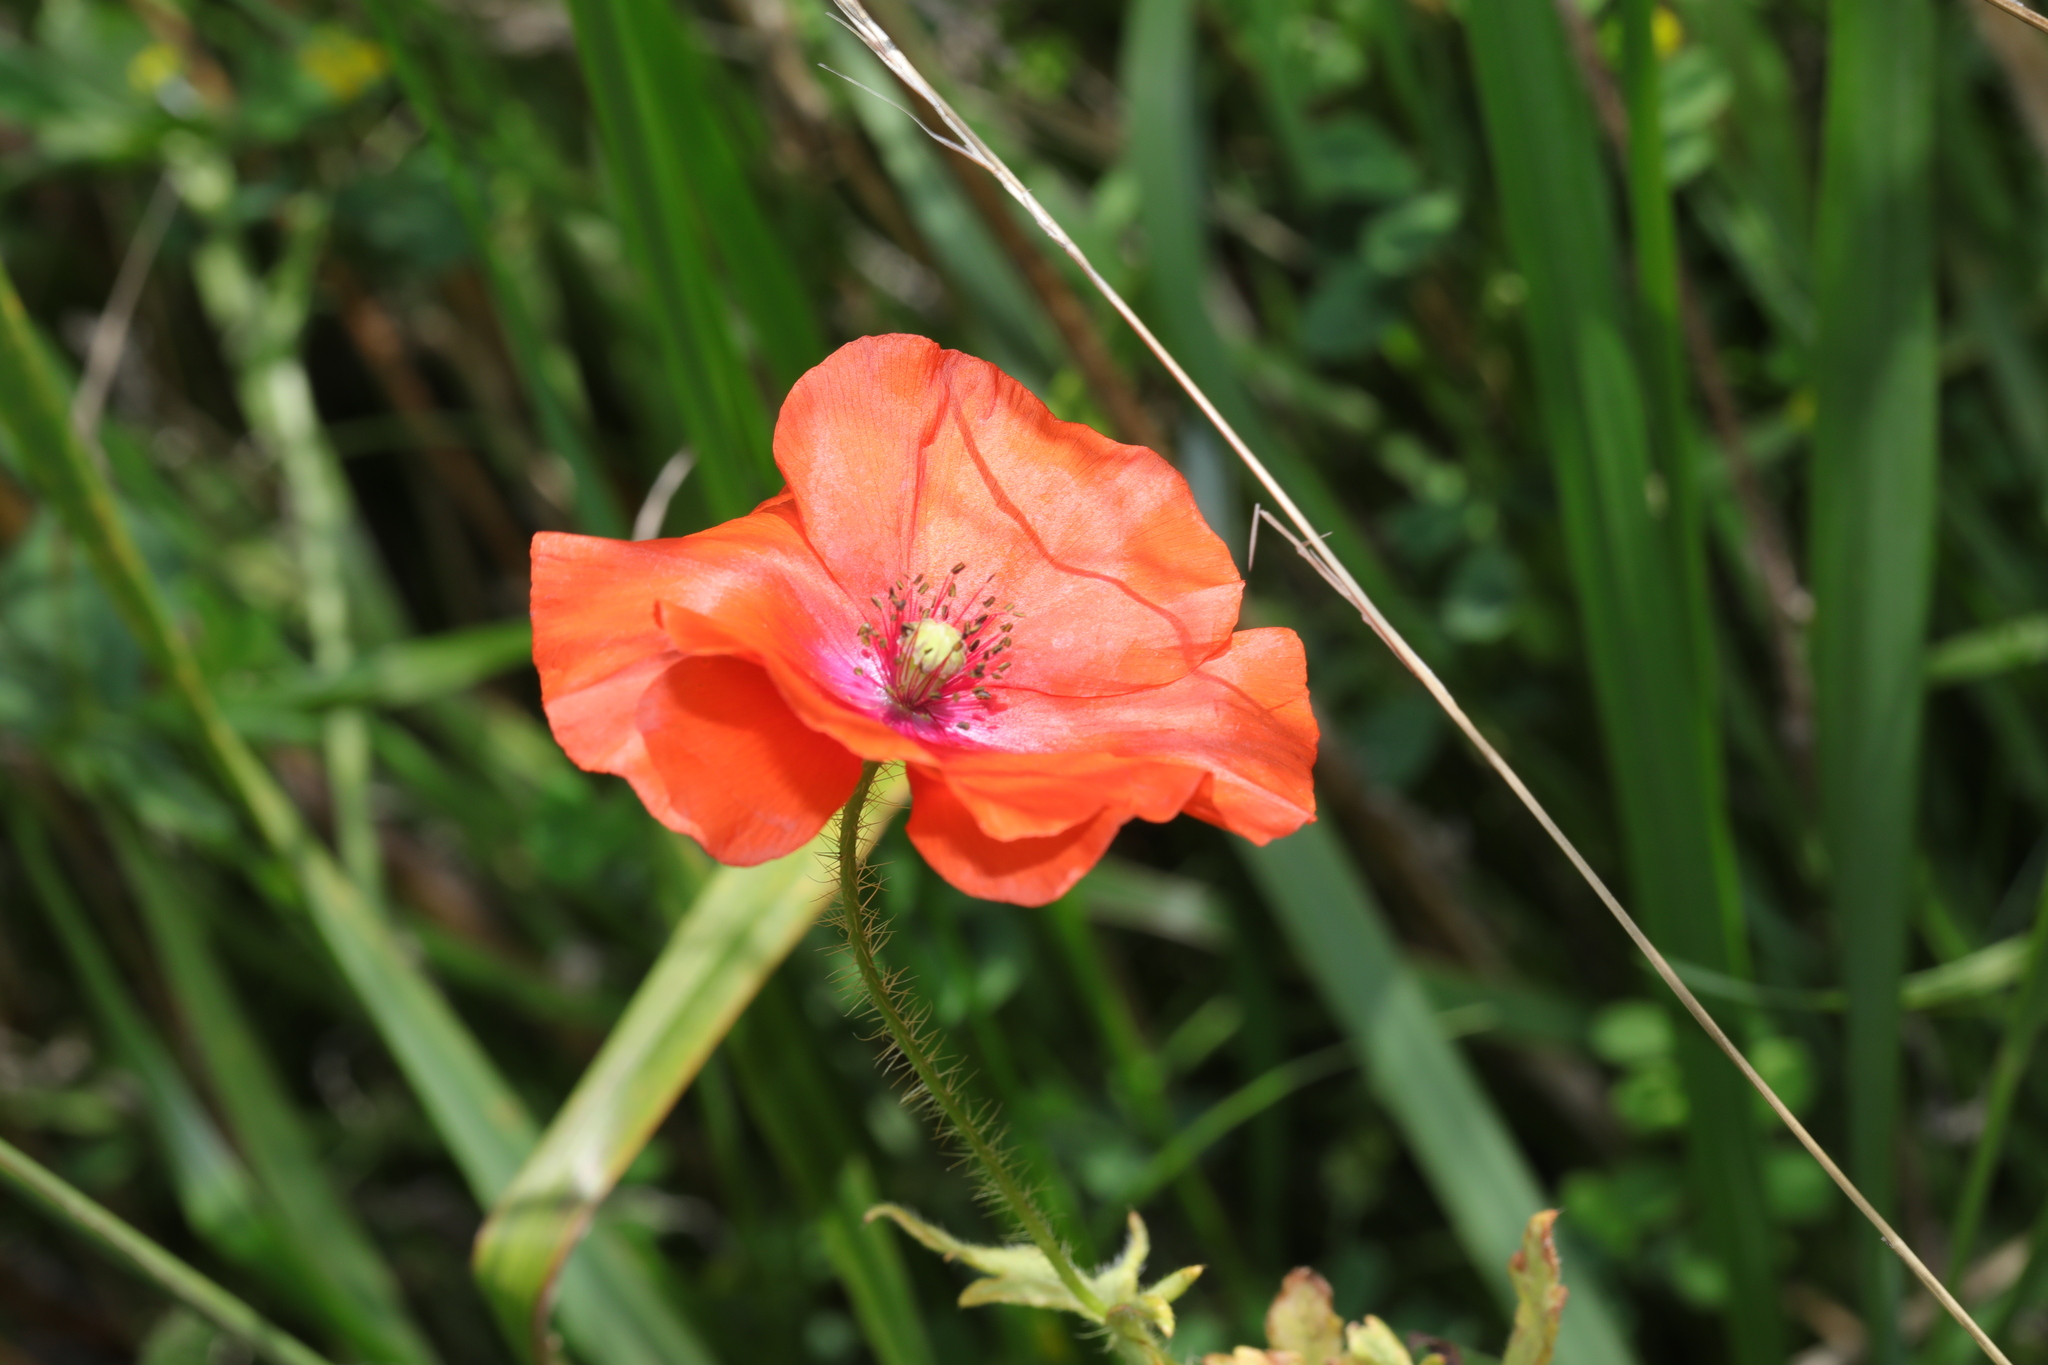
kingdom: Plantae
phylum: Tracheophyta
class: Magnoliopsida
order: Ranunculales
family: Papaveraceae
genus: Papaver
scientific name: Papaver rhoeas
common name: Corn poppy
